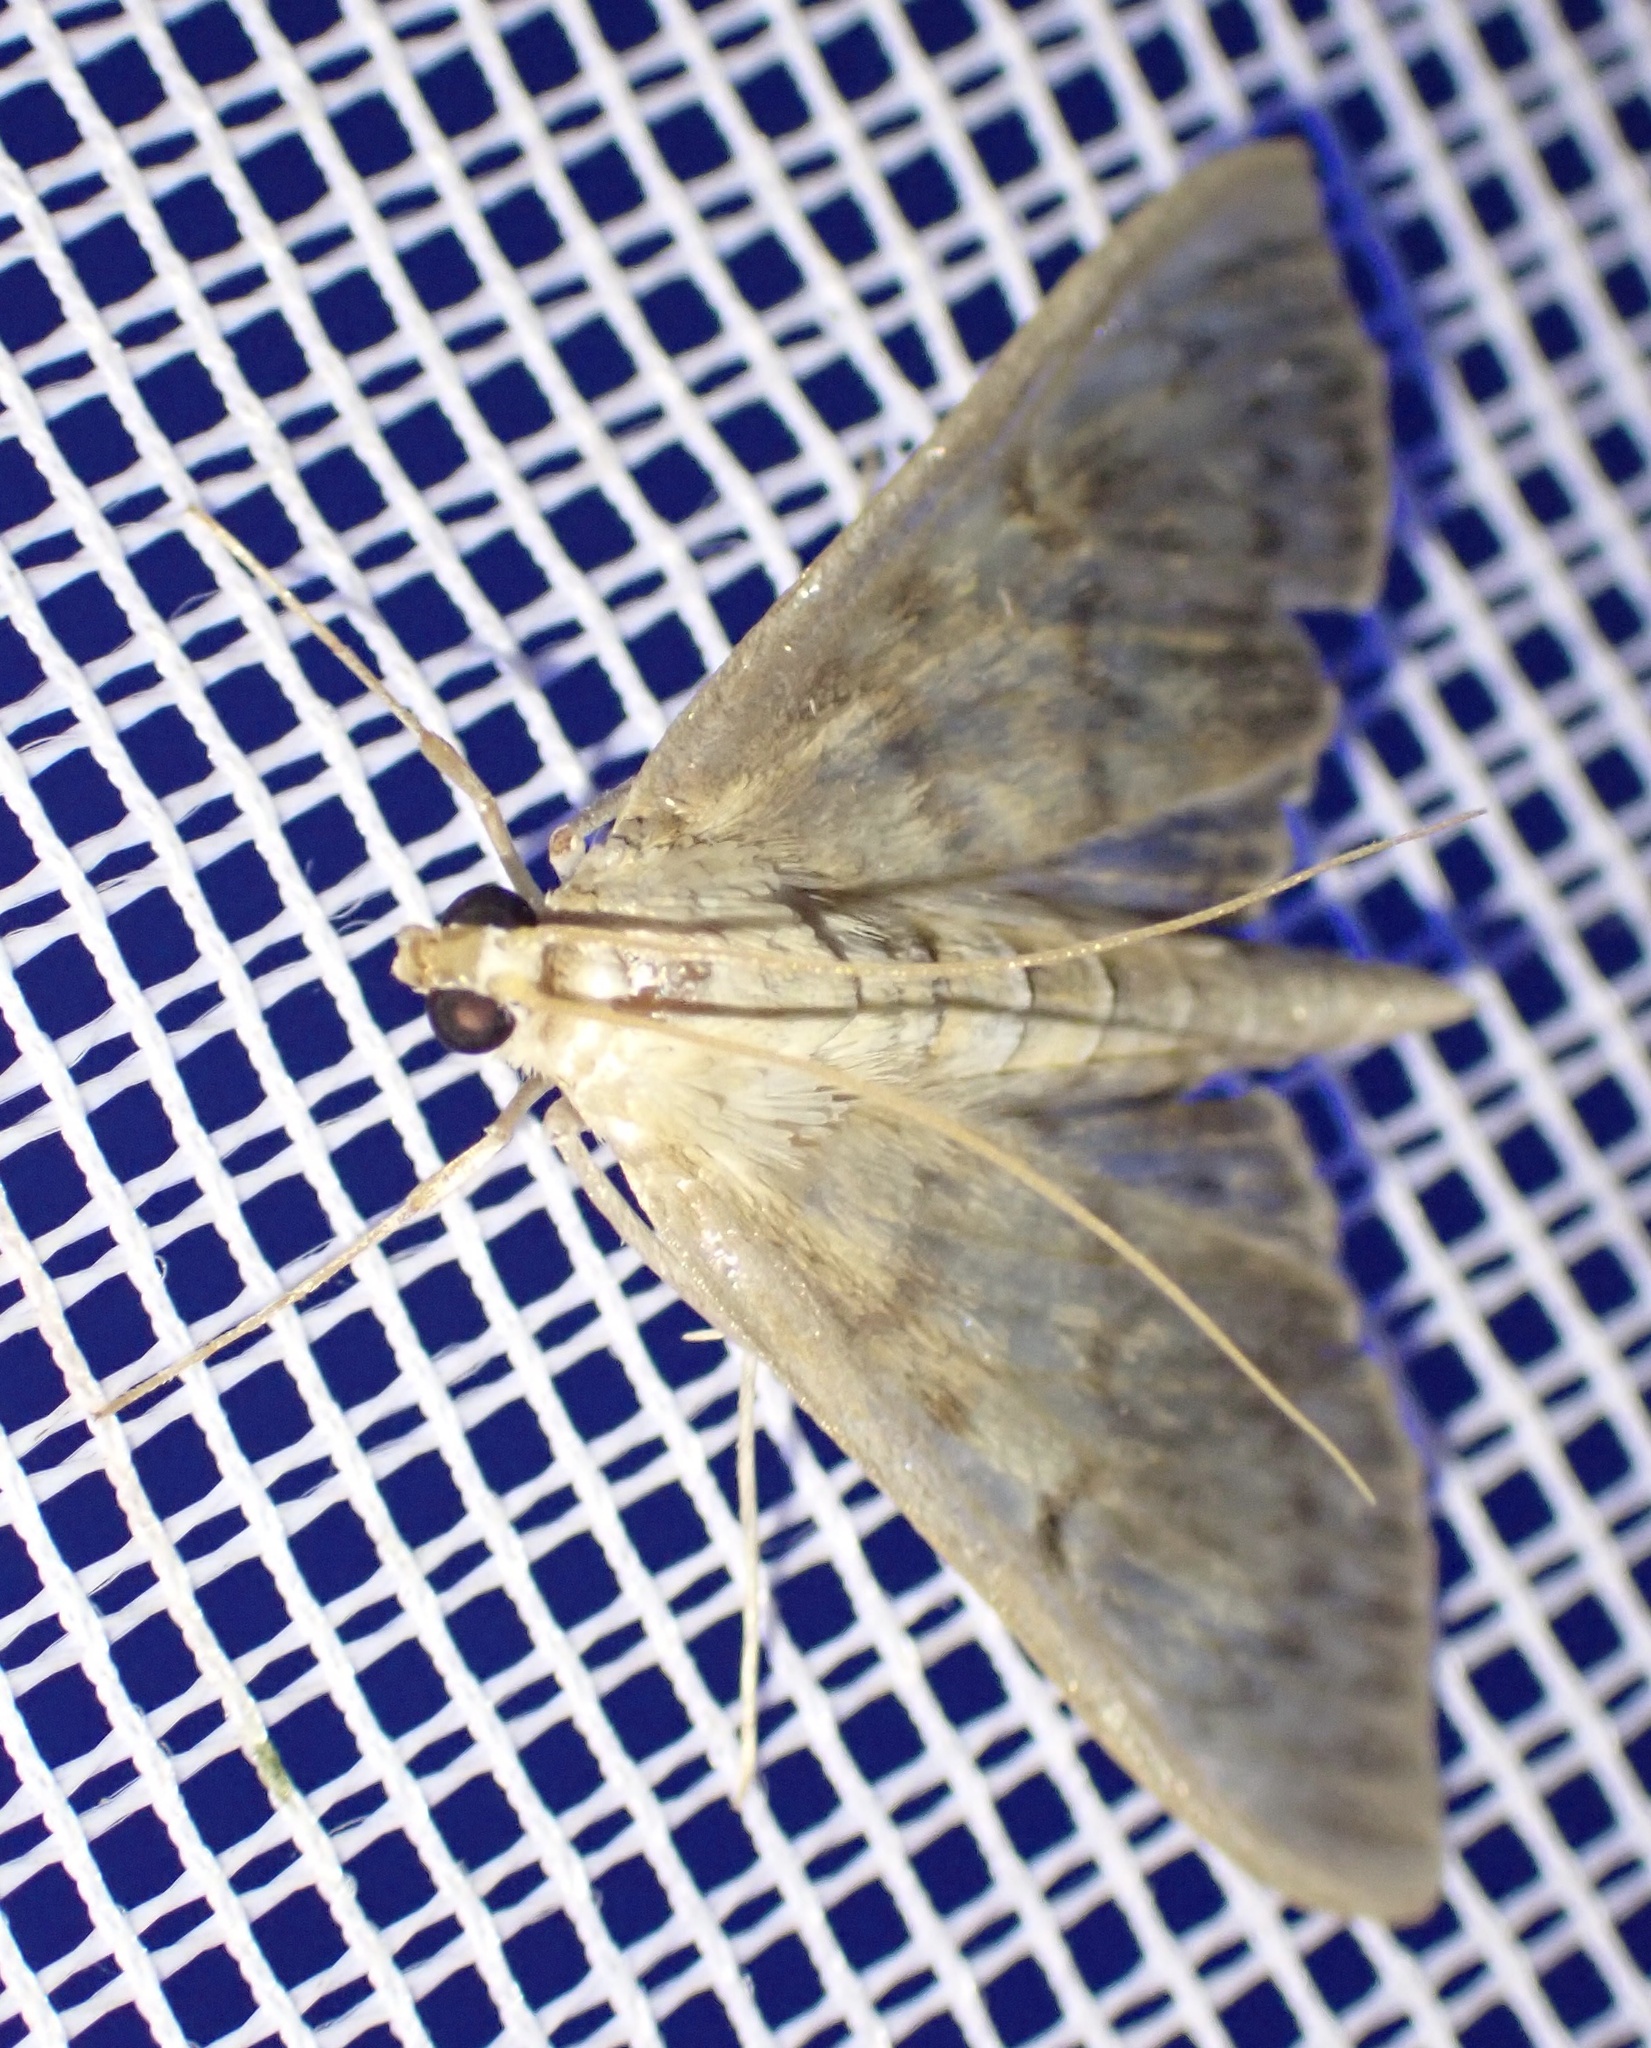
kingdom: Animalia
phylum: Arthropoda
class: Insecta
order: Lepidoptera
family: Crambidae
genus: Patania
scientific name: Patania ruralis
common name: Mother of pearl
